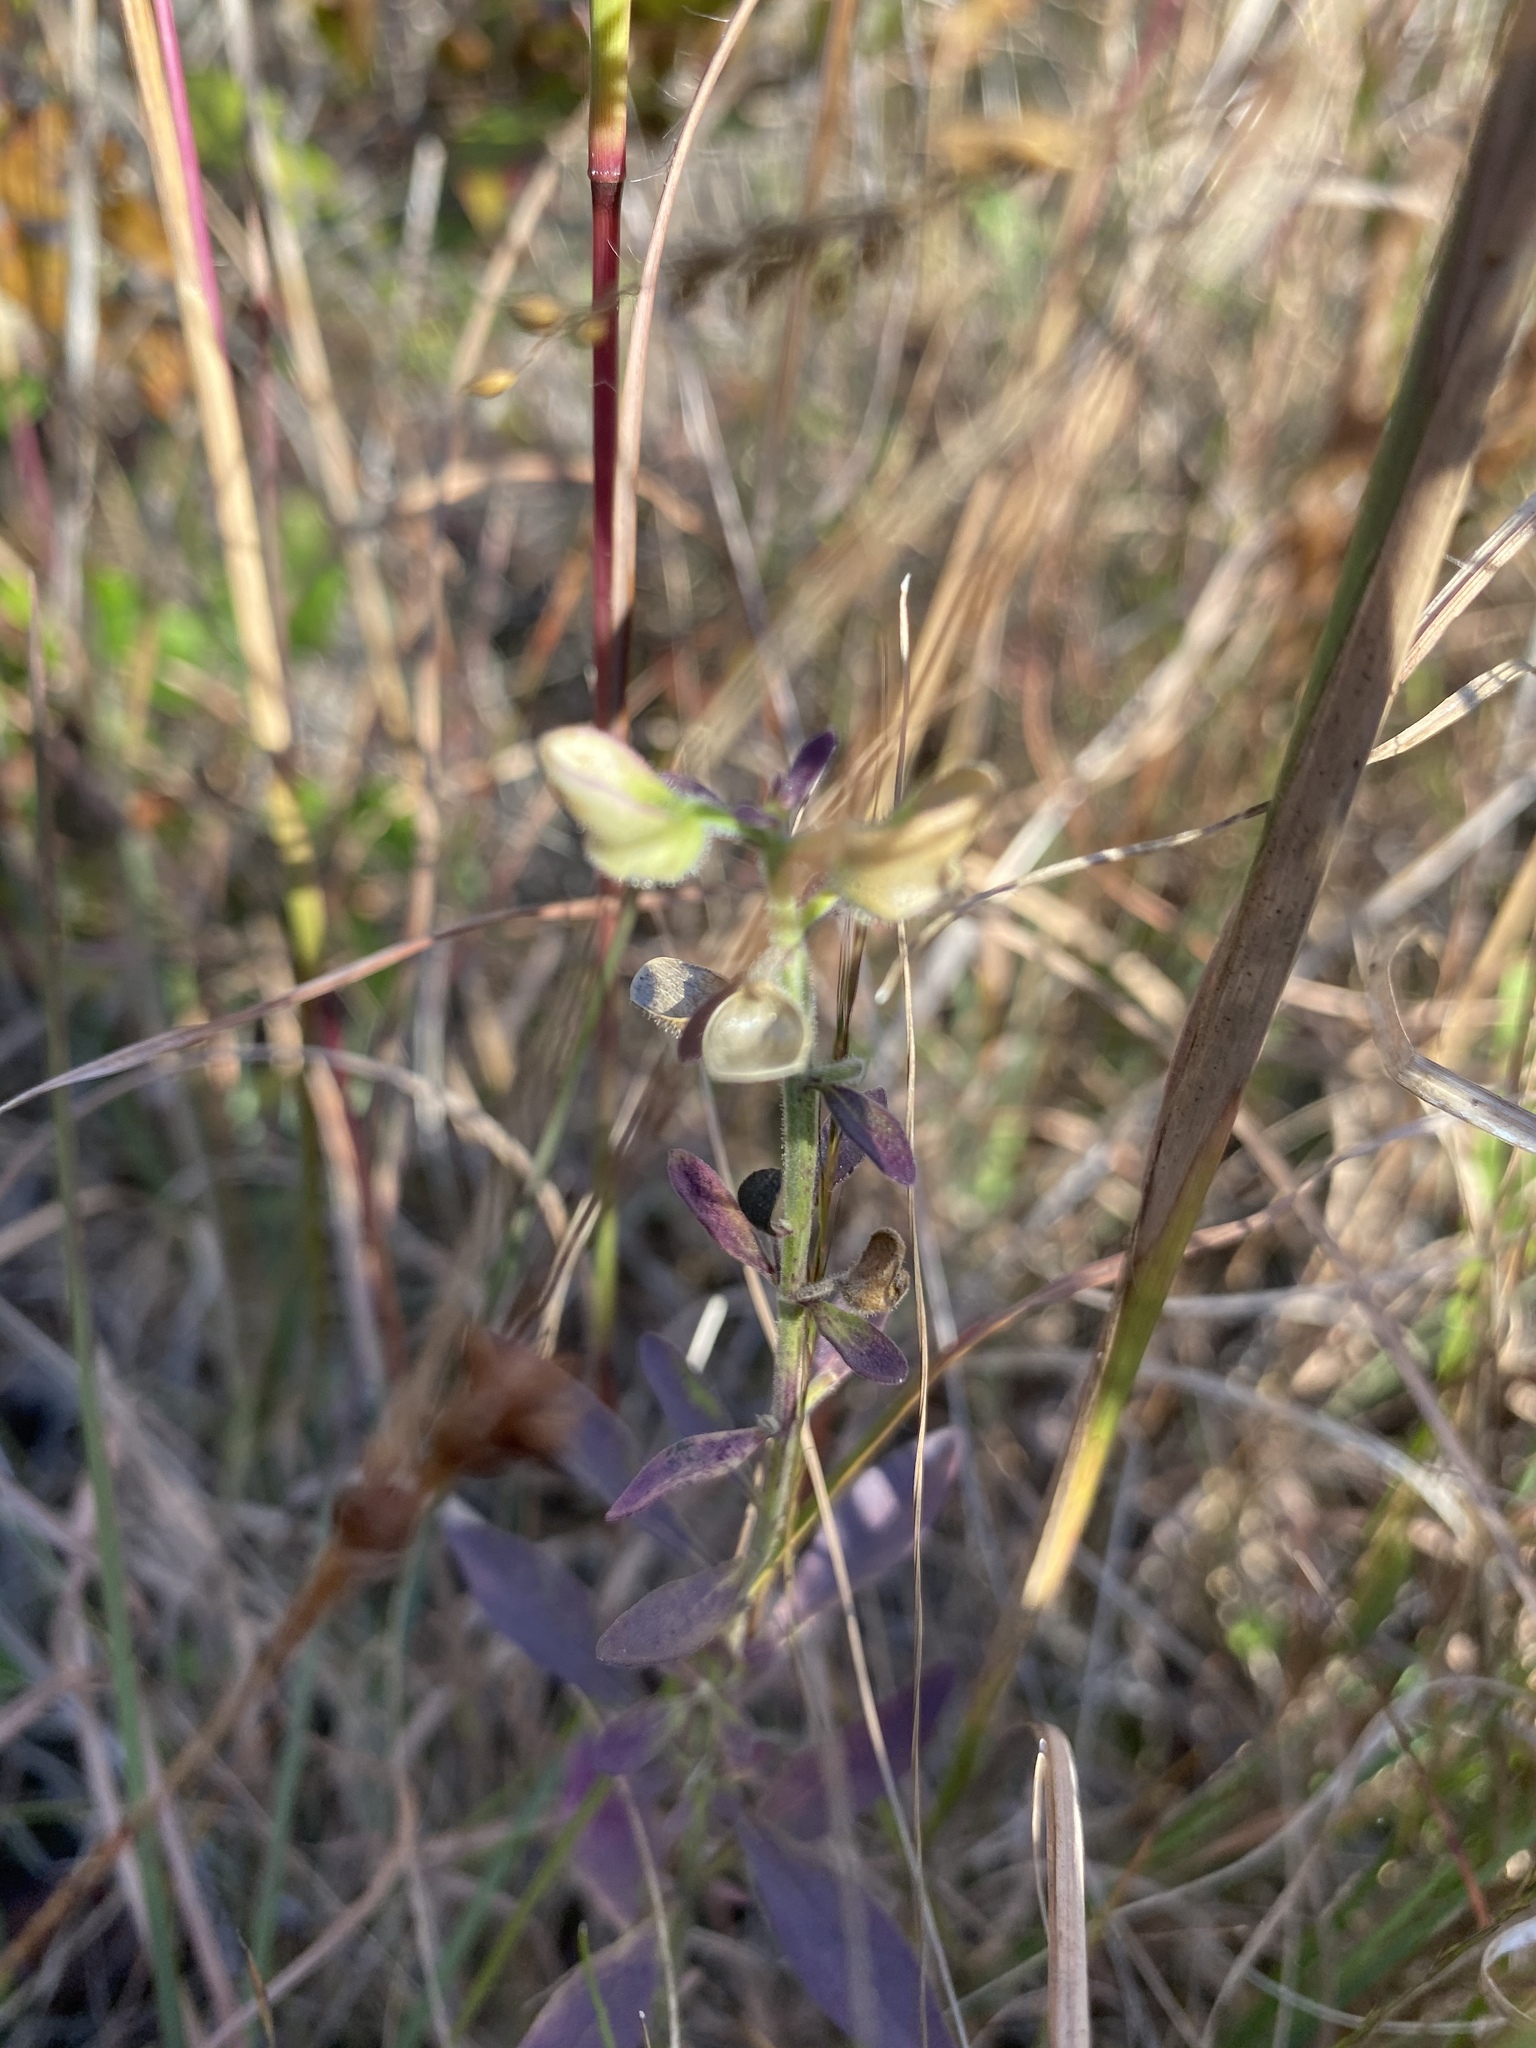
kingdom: Plantae
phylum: Tracheophyta
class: Magnoliopsida
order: Lamiales
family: Lamiaceae
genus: Scutellaria
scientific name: Scutellaria integrifolia
